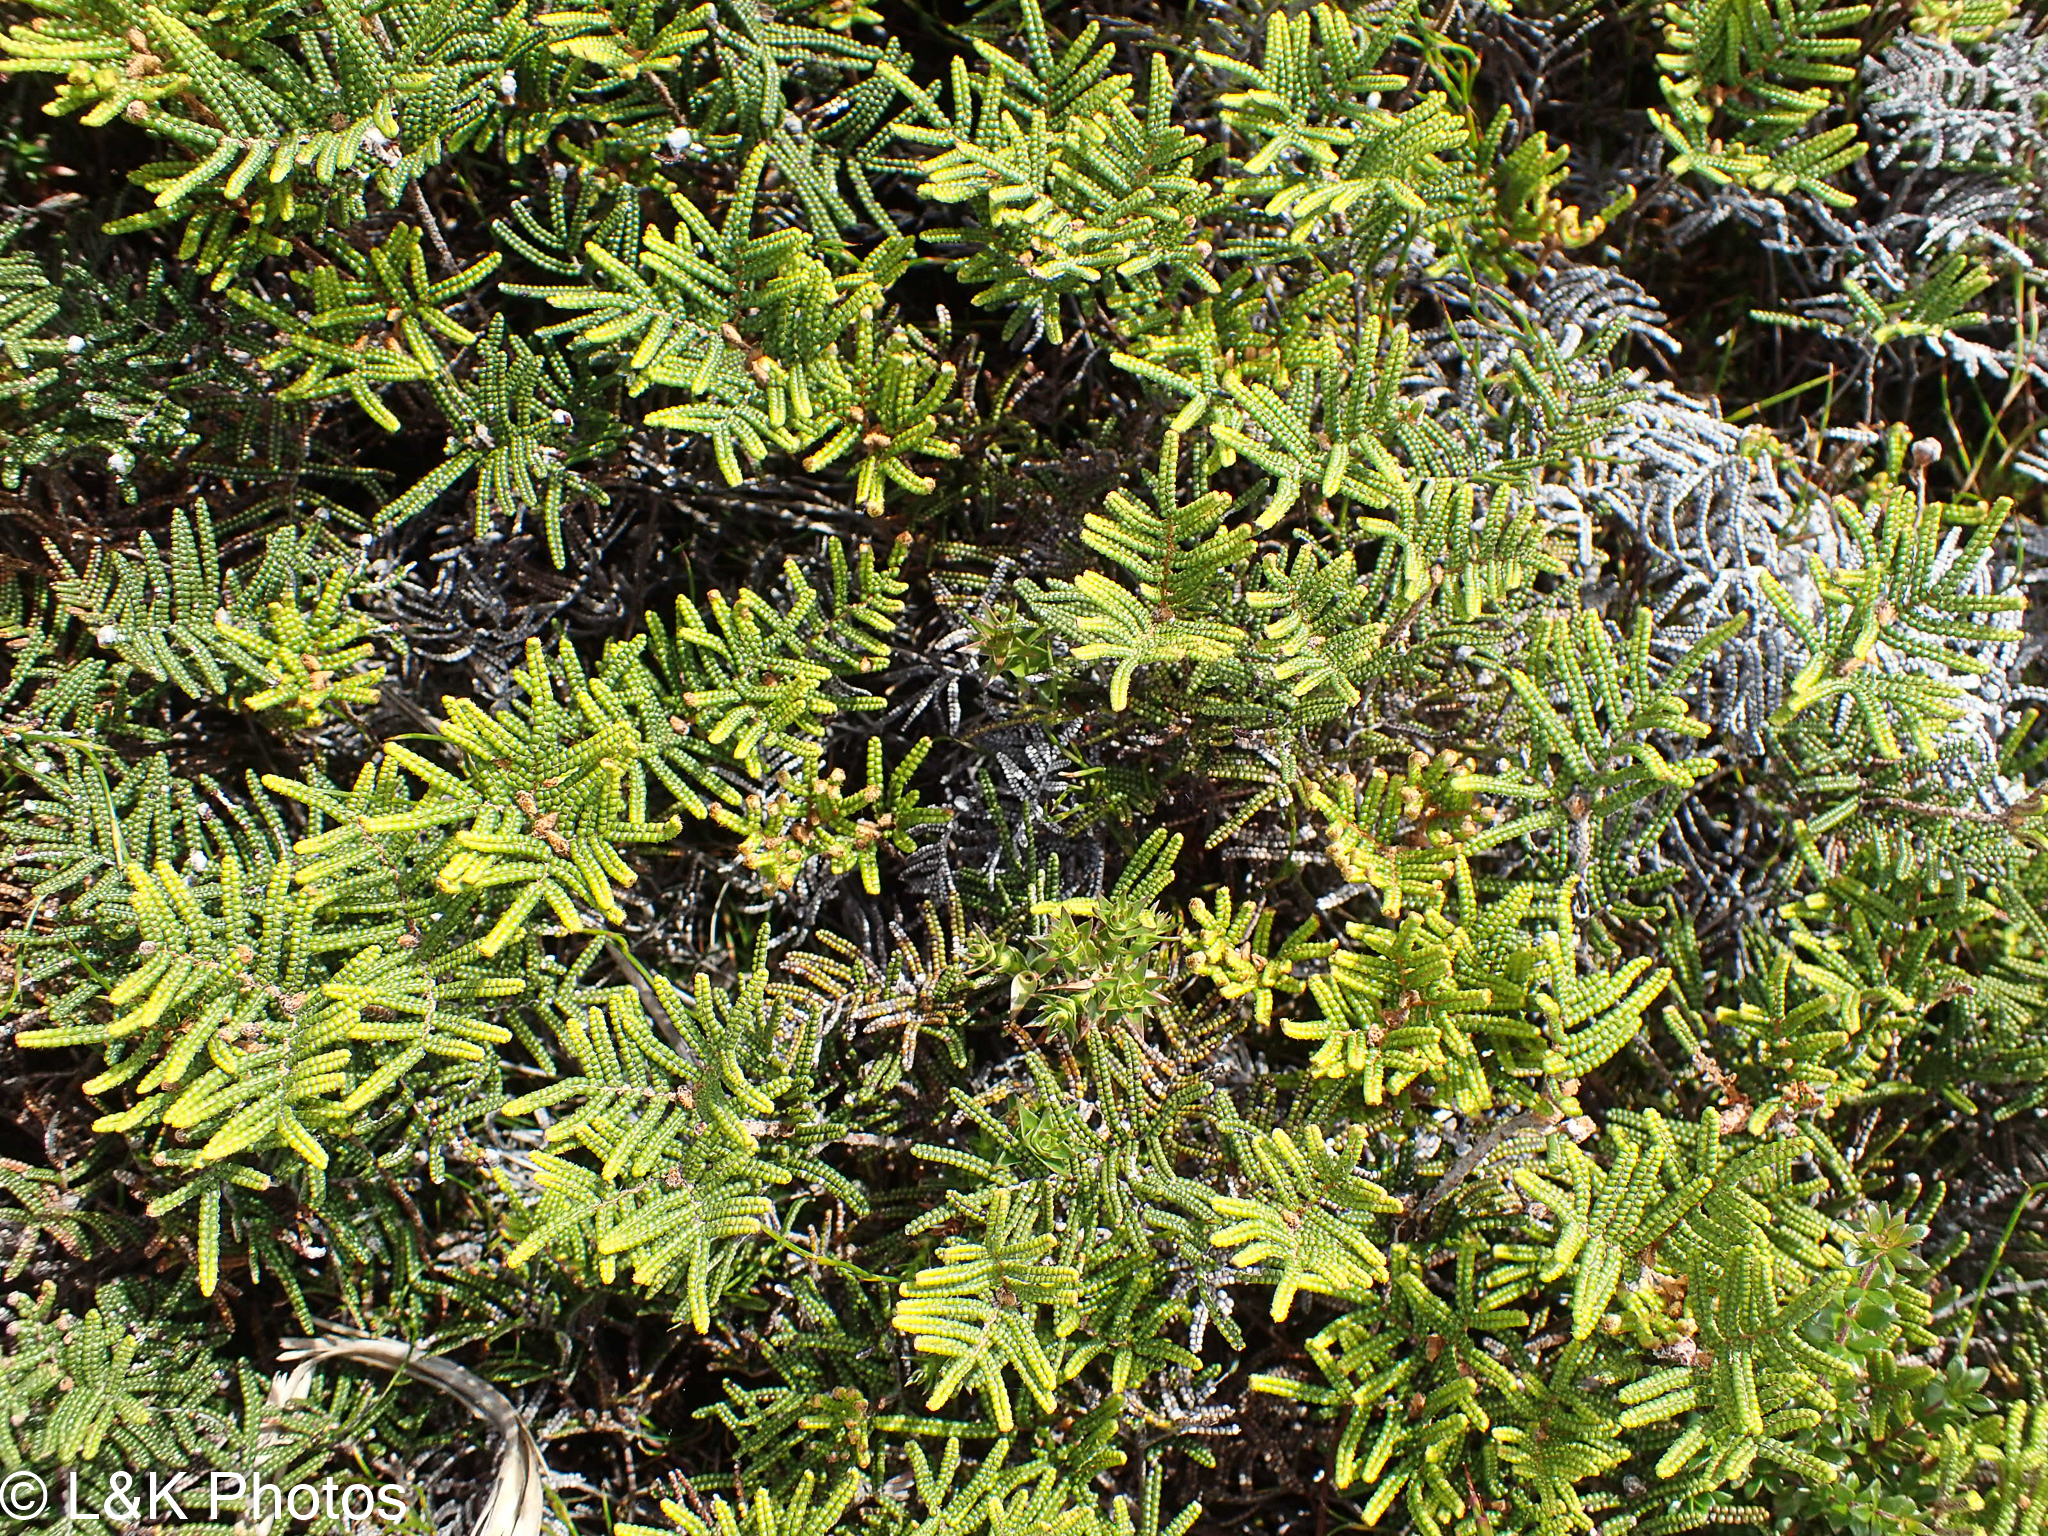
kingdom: Plantae
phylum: Tracheophyta
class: Polypodiopsida
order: Gleicheniales
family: Gleicheniaceae
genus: Gleichenia
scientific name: Gleichenia alpina
